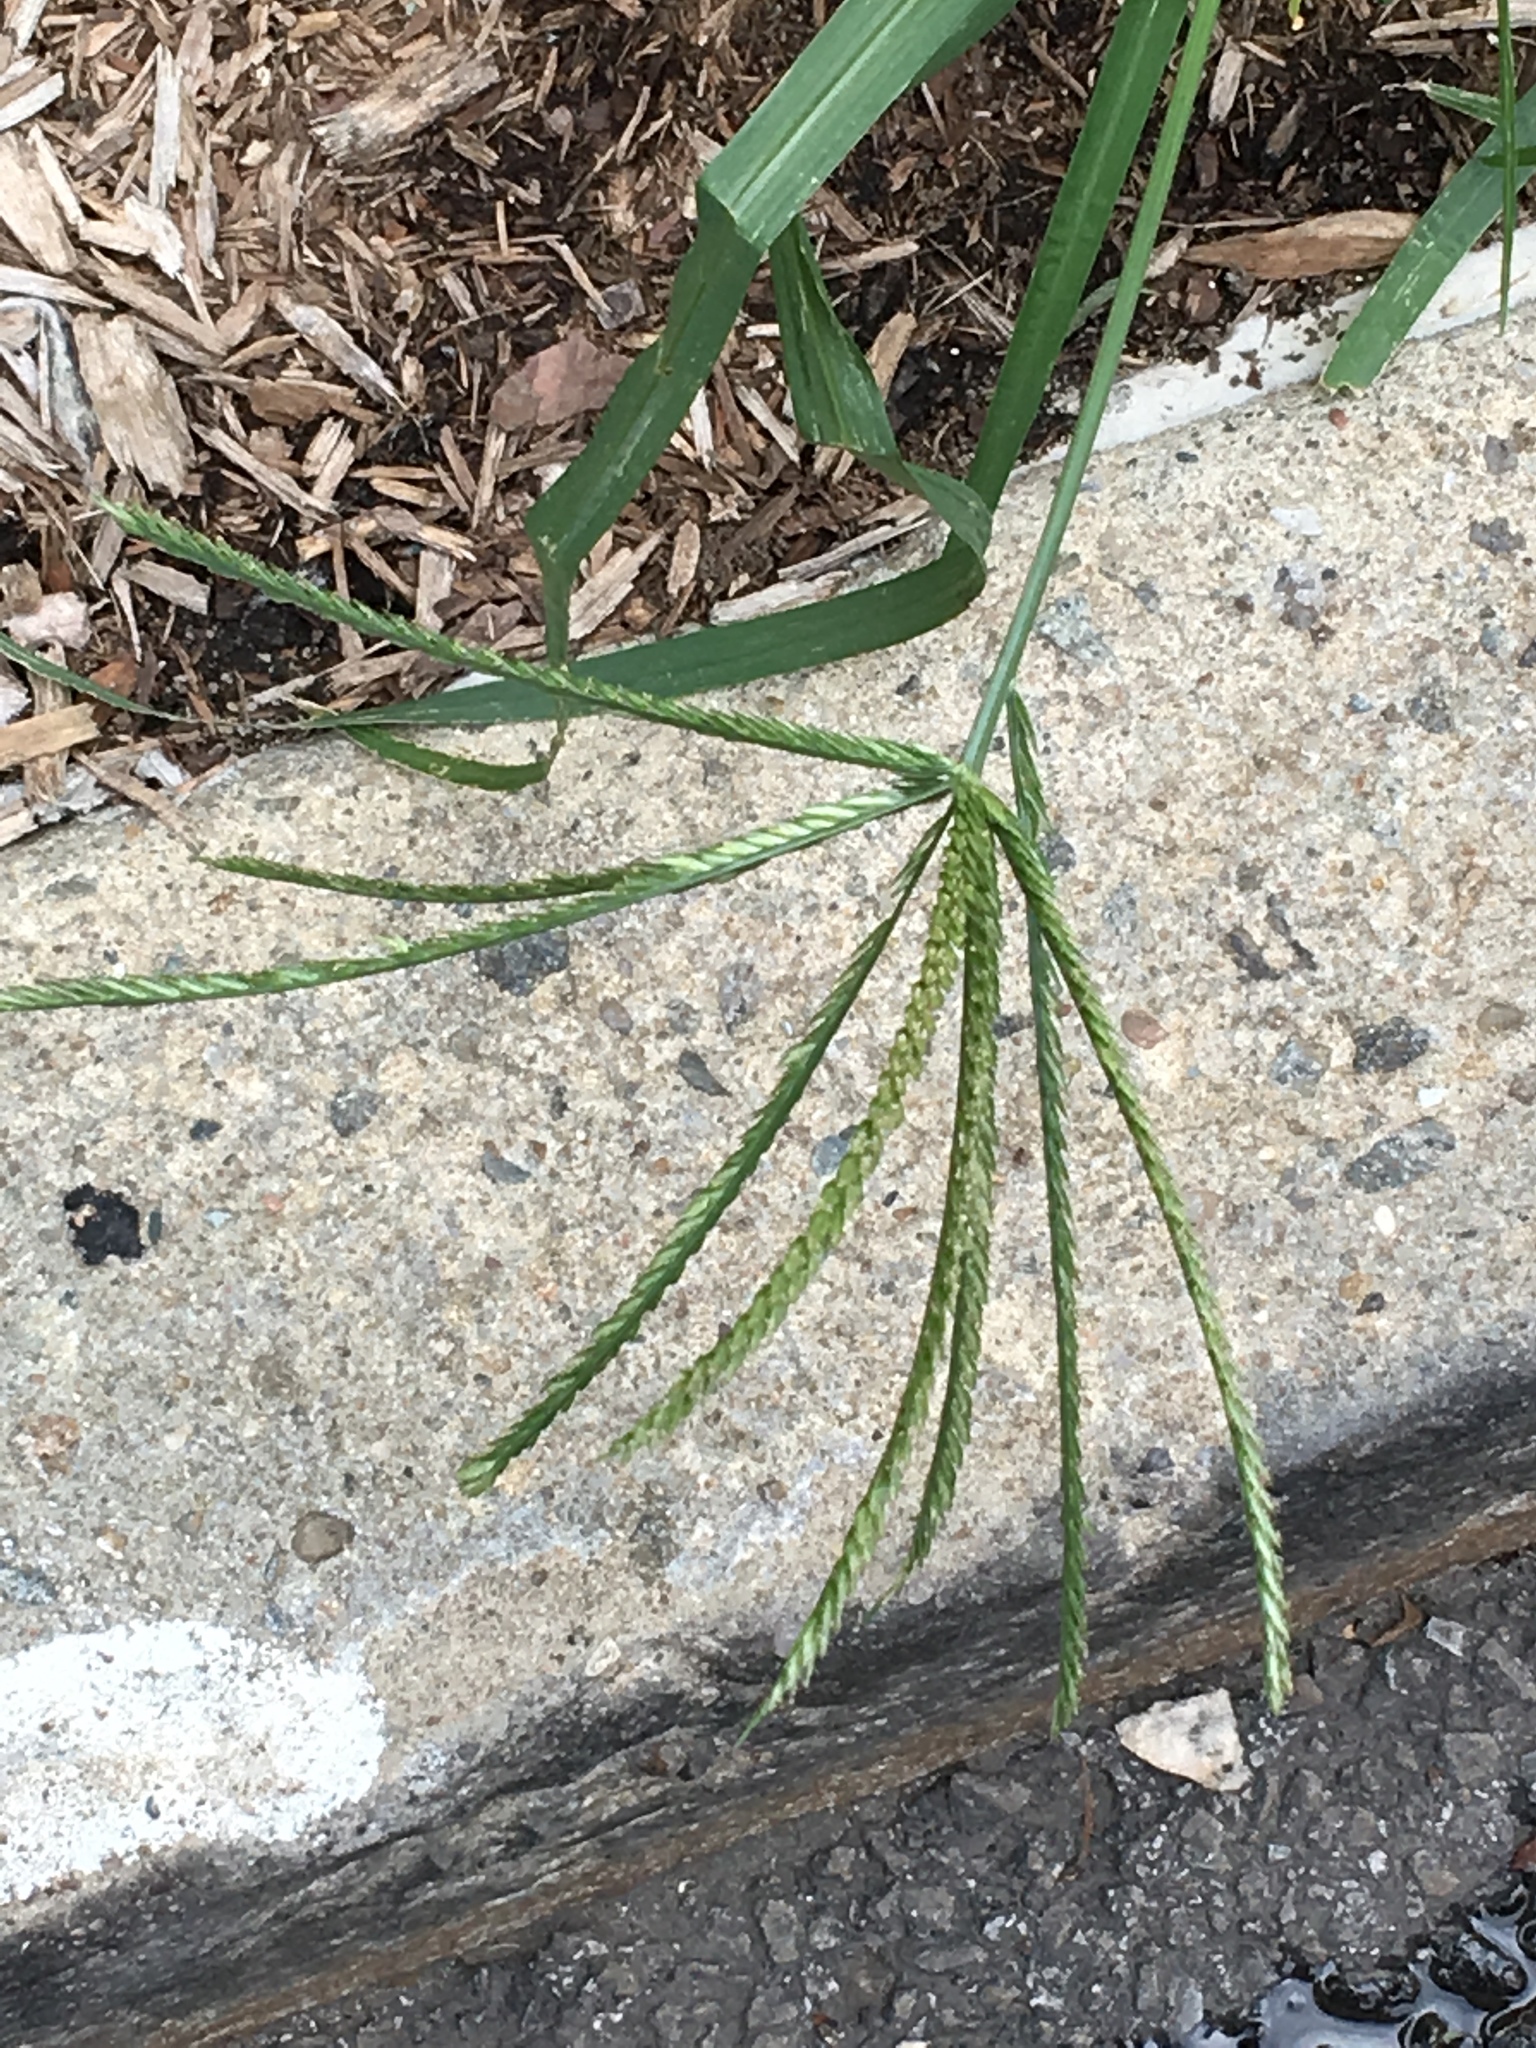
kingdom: Plantae
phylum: Tracheophyta
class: Liliopsida
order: Poales
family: Poaceae
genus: Eleusine
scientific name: Eleusine indica
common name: Yard-grass
